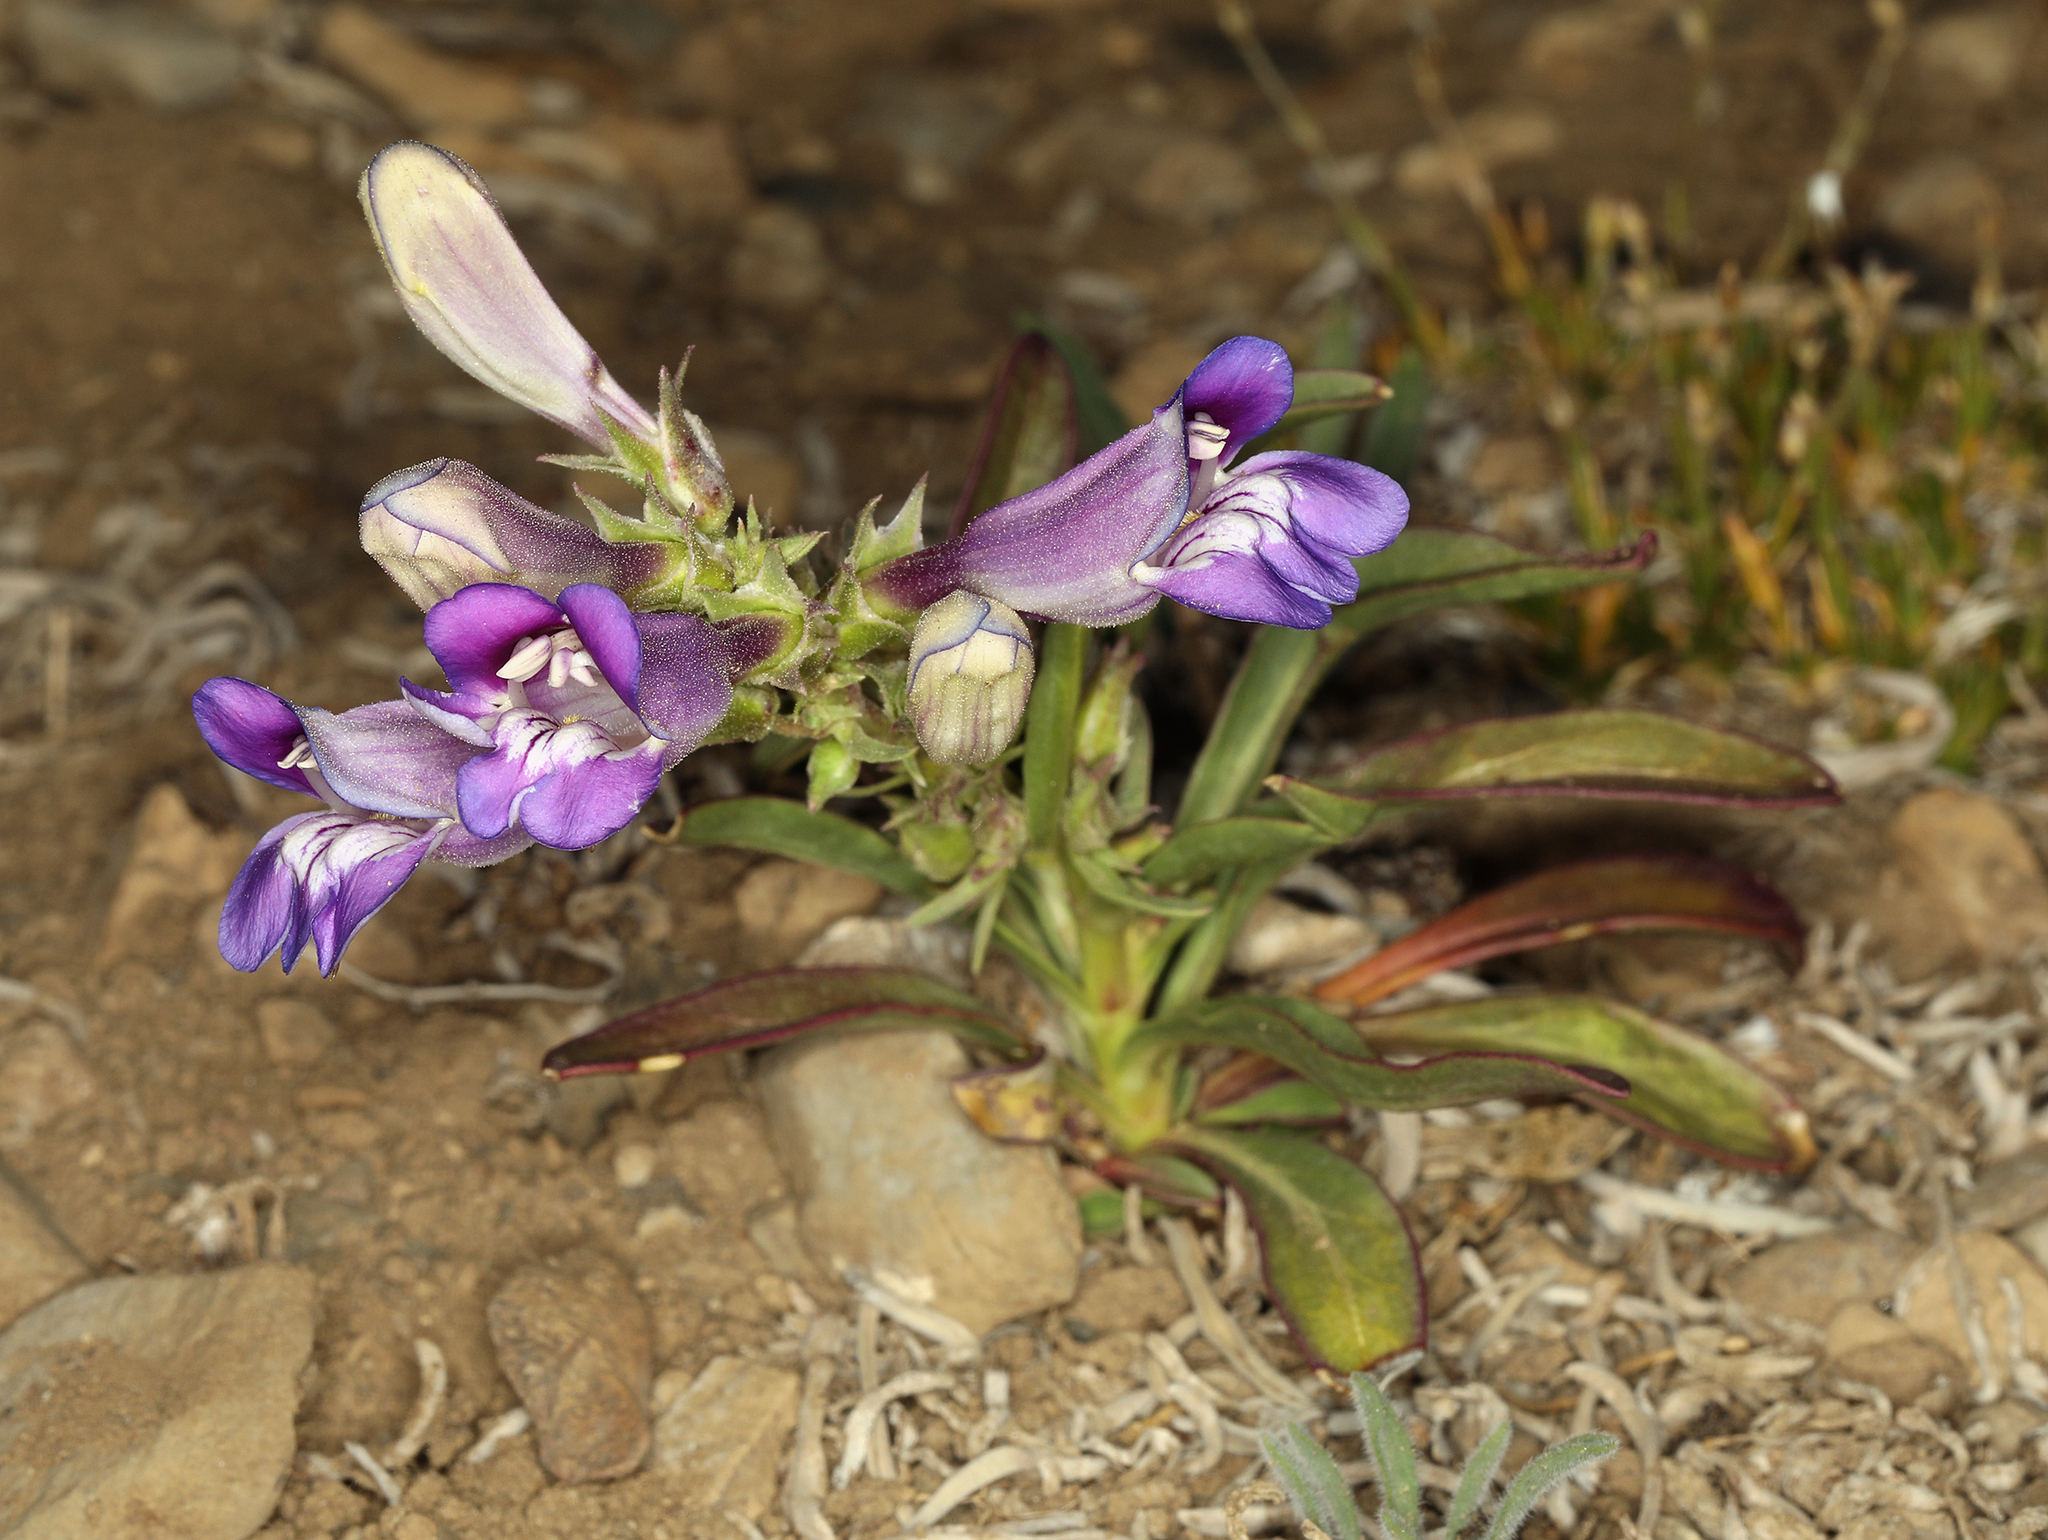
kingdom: Plantae
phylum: Tracheophyta
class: Magnoliopsida
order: Lamiales
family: Plantaginaceae
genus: Penstemon
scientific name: Penstemon speciosus
